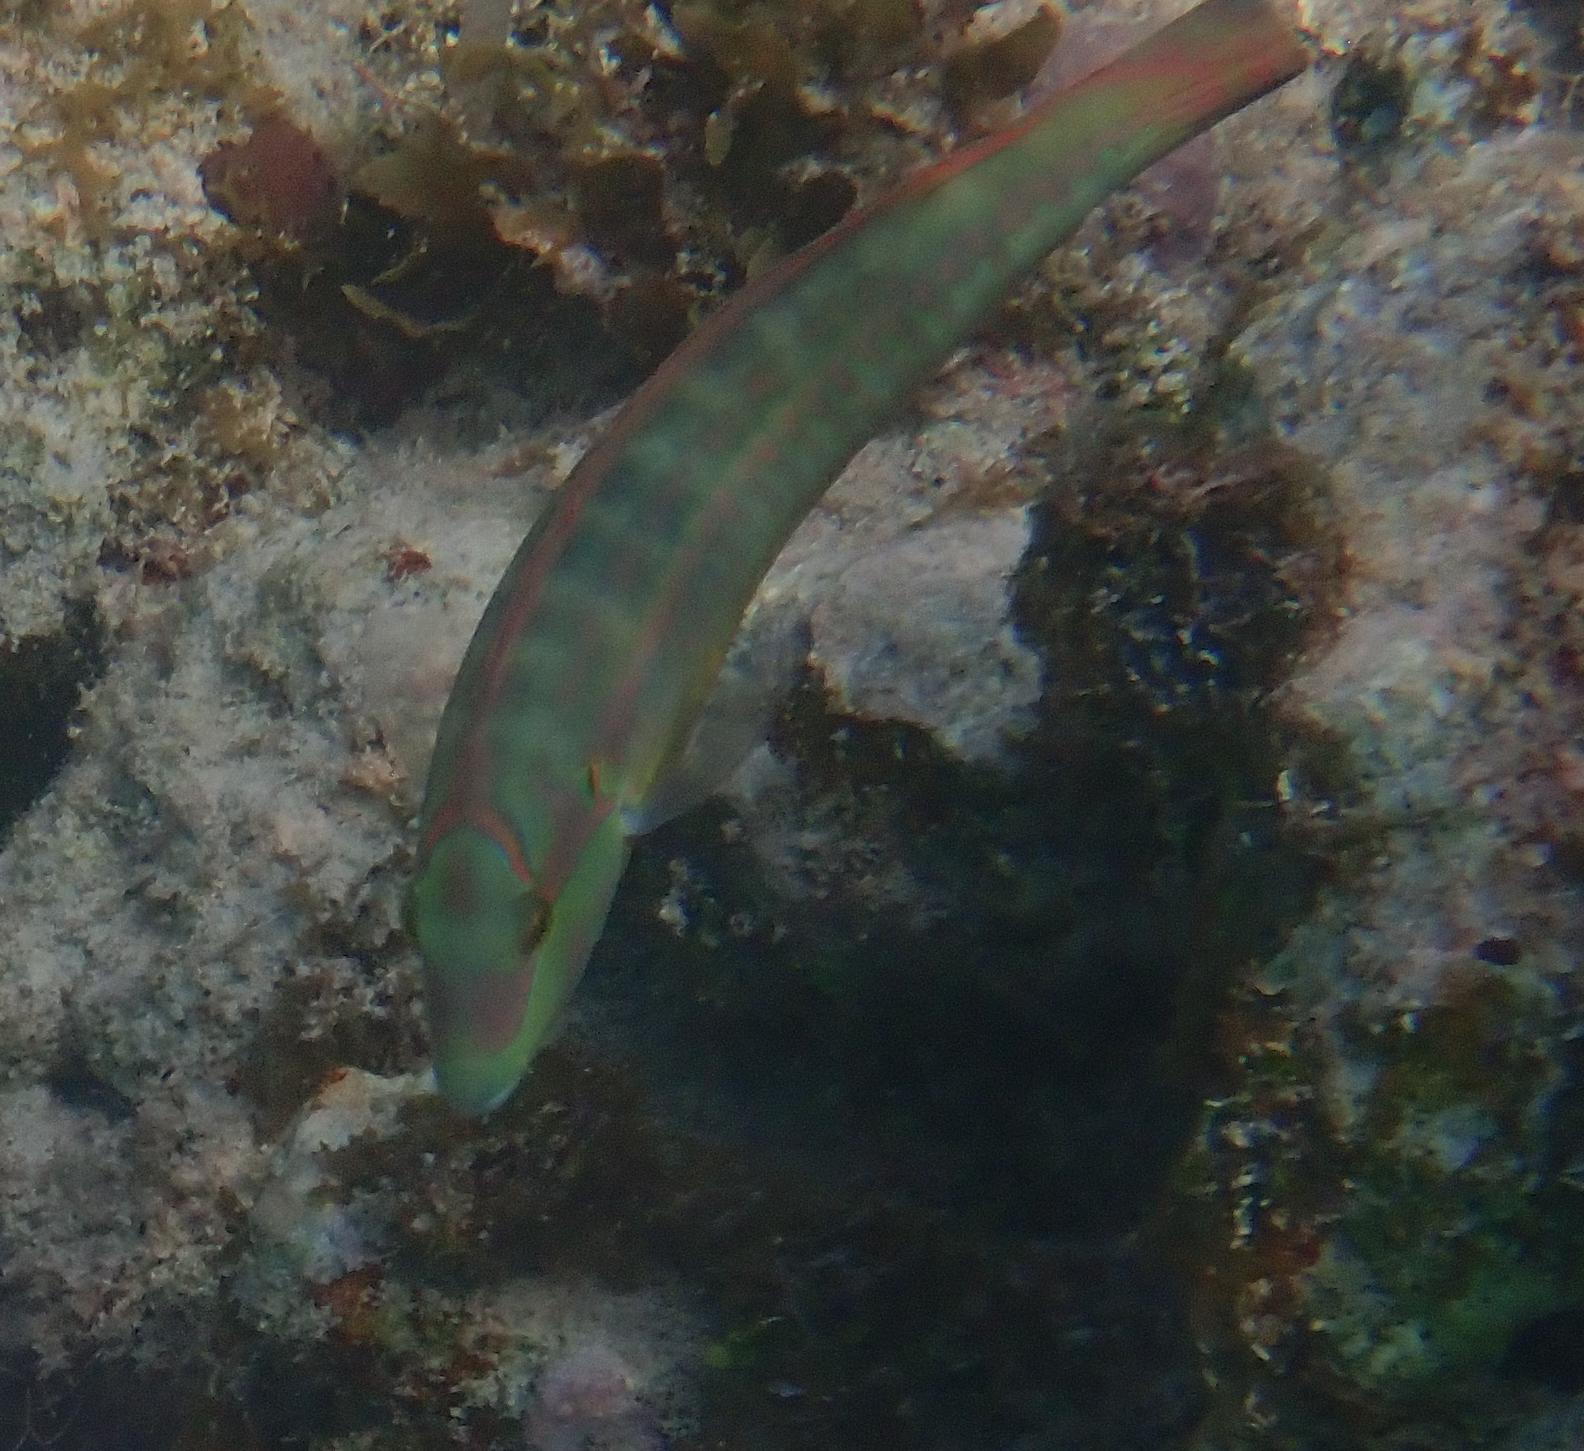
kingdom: Animalia
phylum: Chordata
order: Perciformes
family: Labridae
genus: Halichoeres
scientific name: Halichoeres bivittatus
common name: Slippery dick
